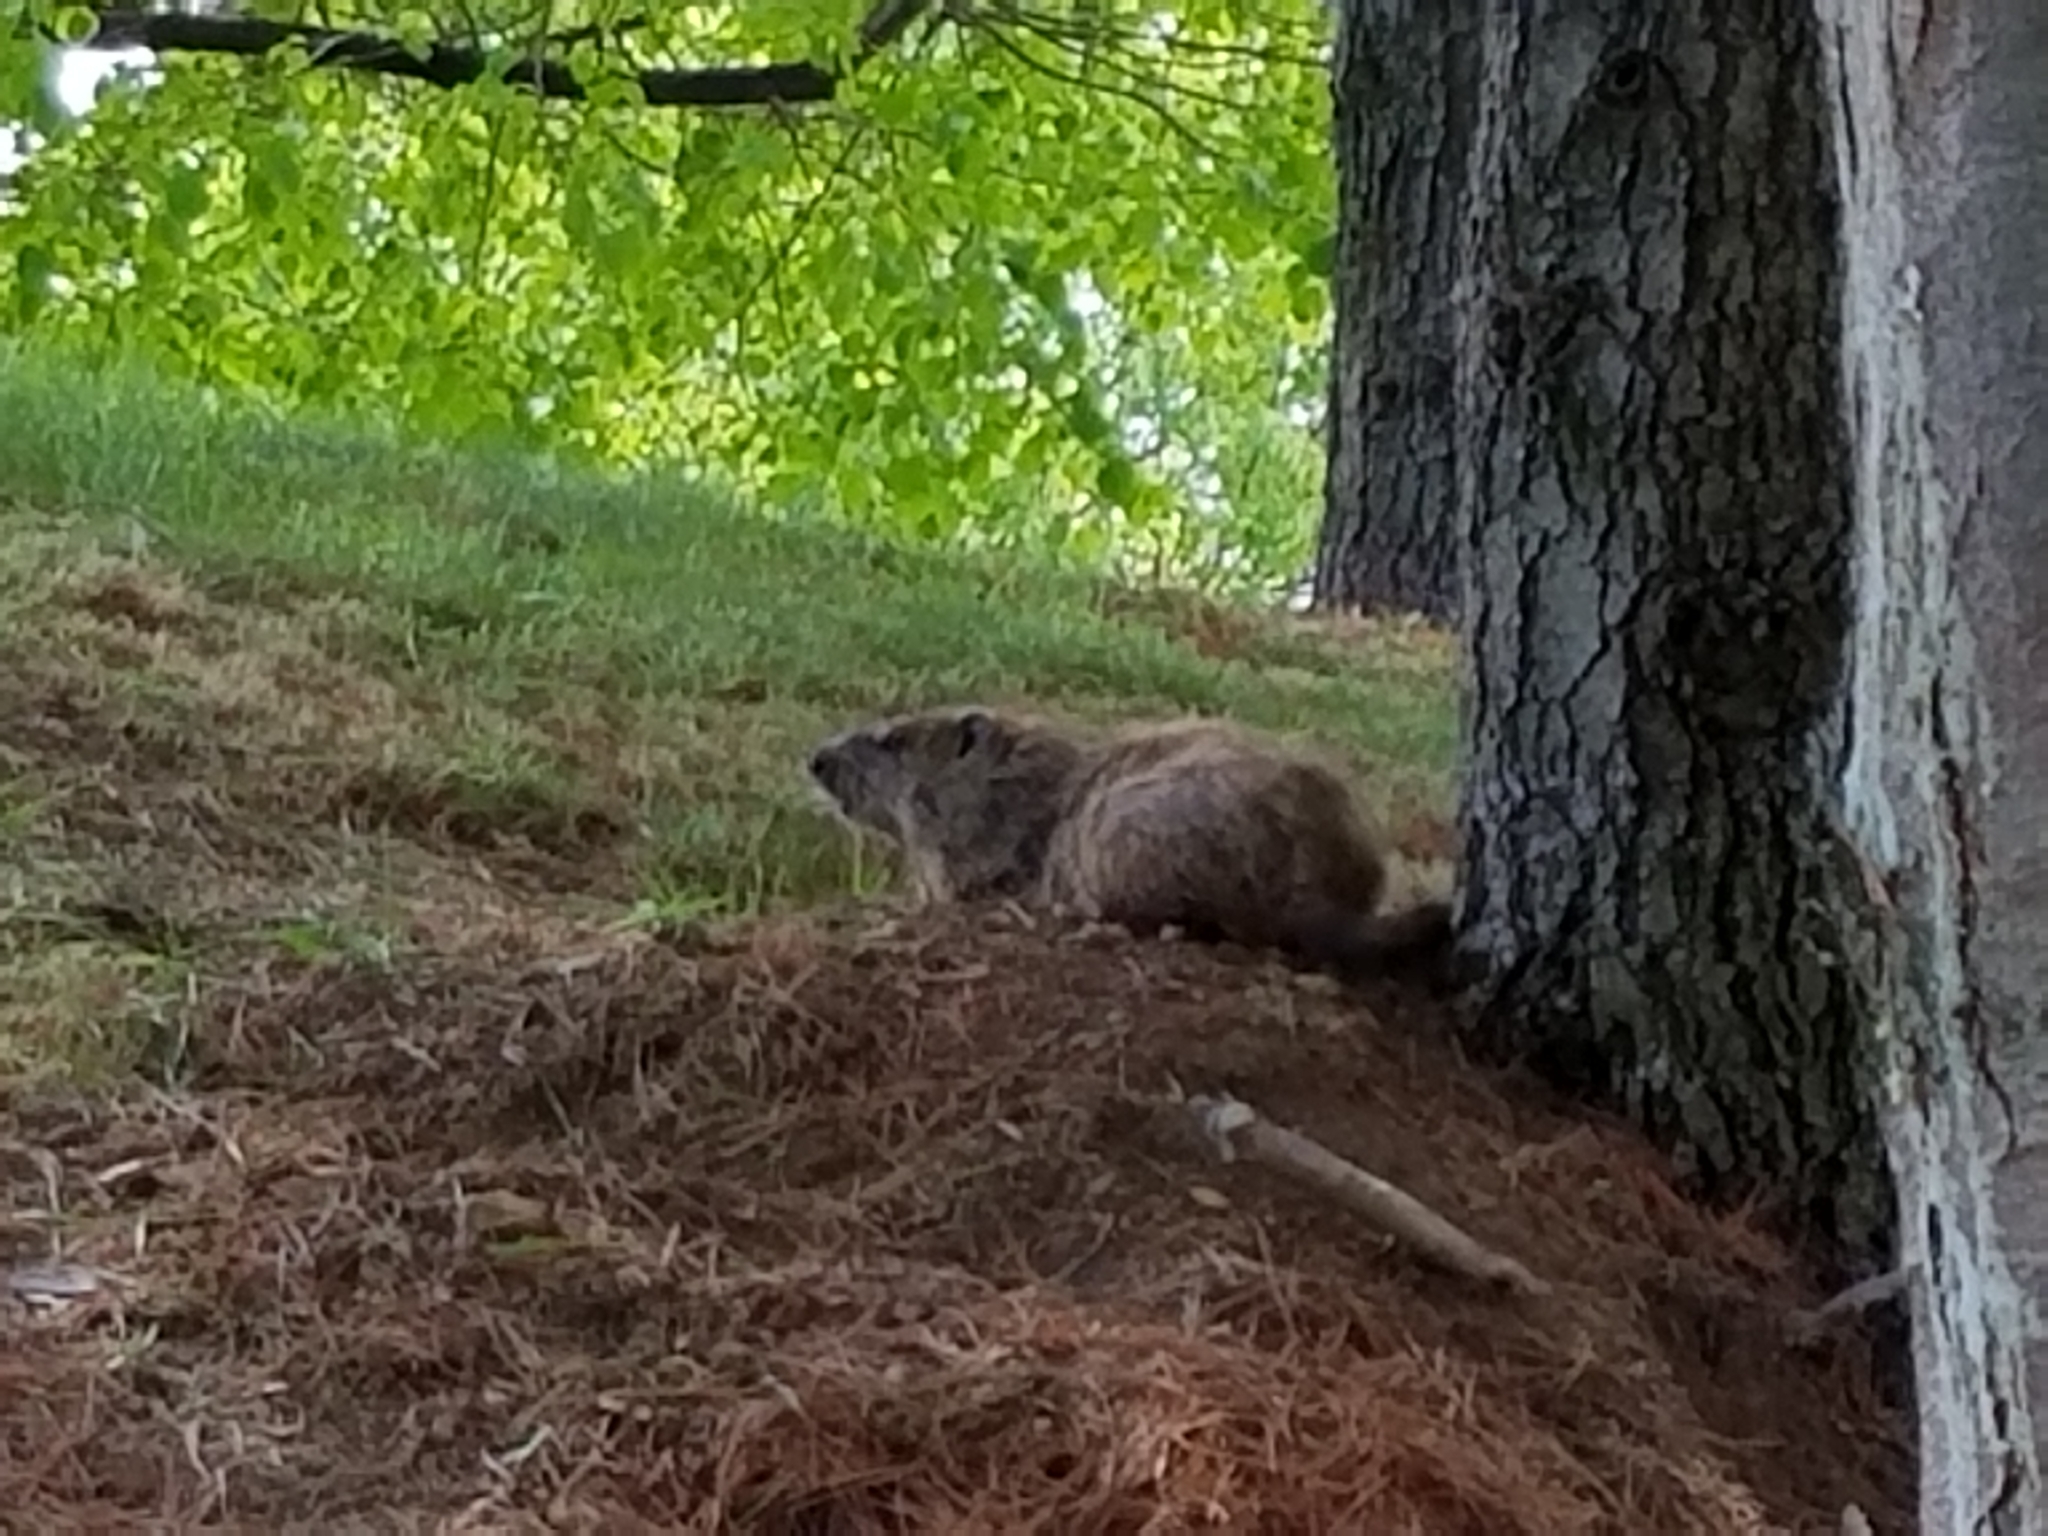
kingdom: Animalia
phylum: Chordata
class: Mammalia
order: Rodentia
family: Sciuridae
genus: Marmota
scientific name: Marmota monax
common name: Groundhog
